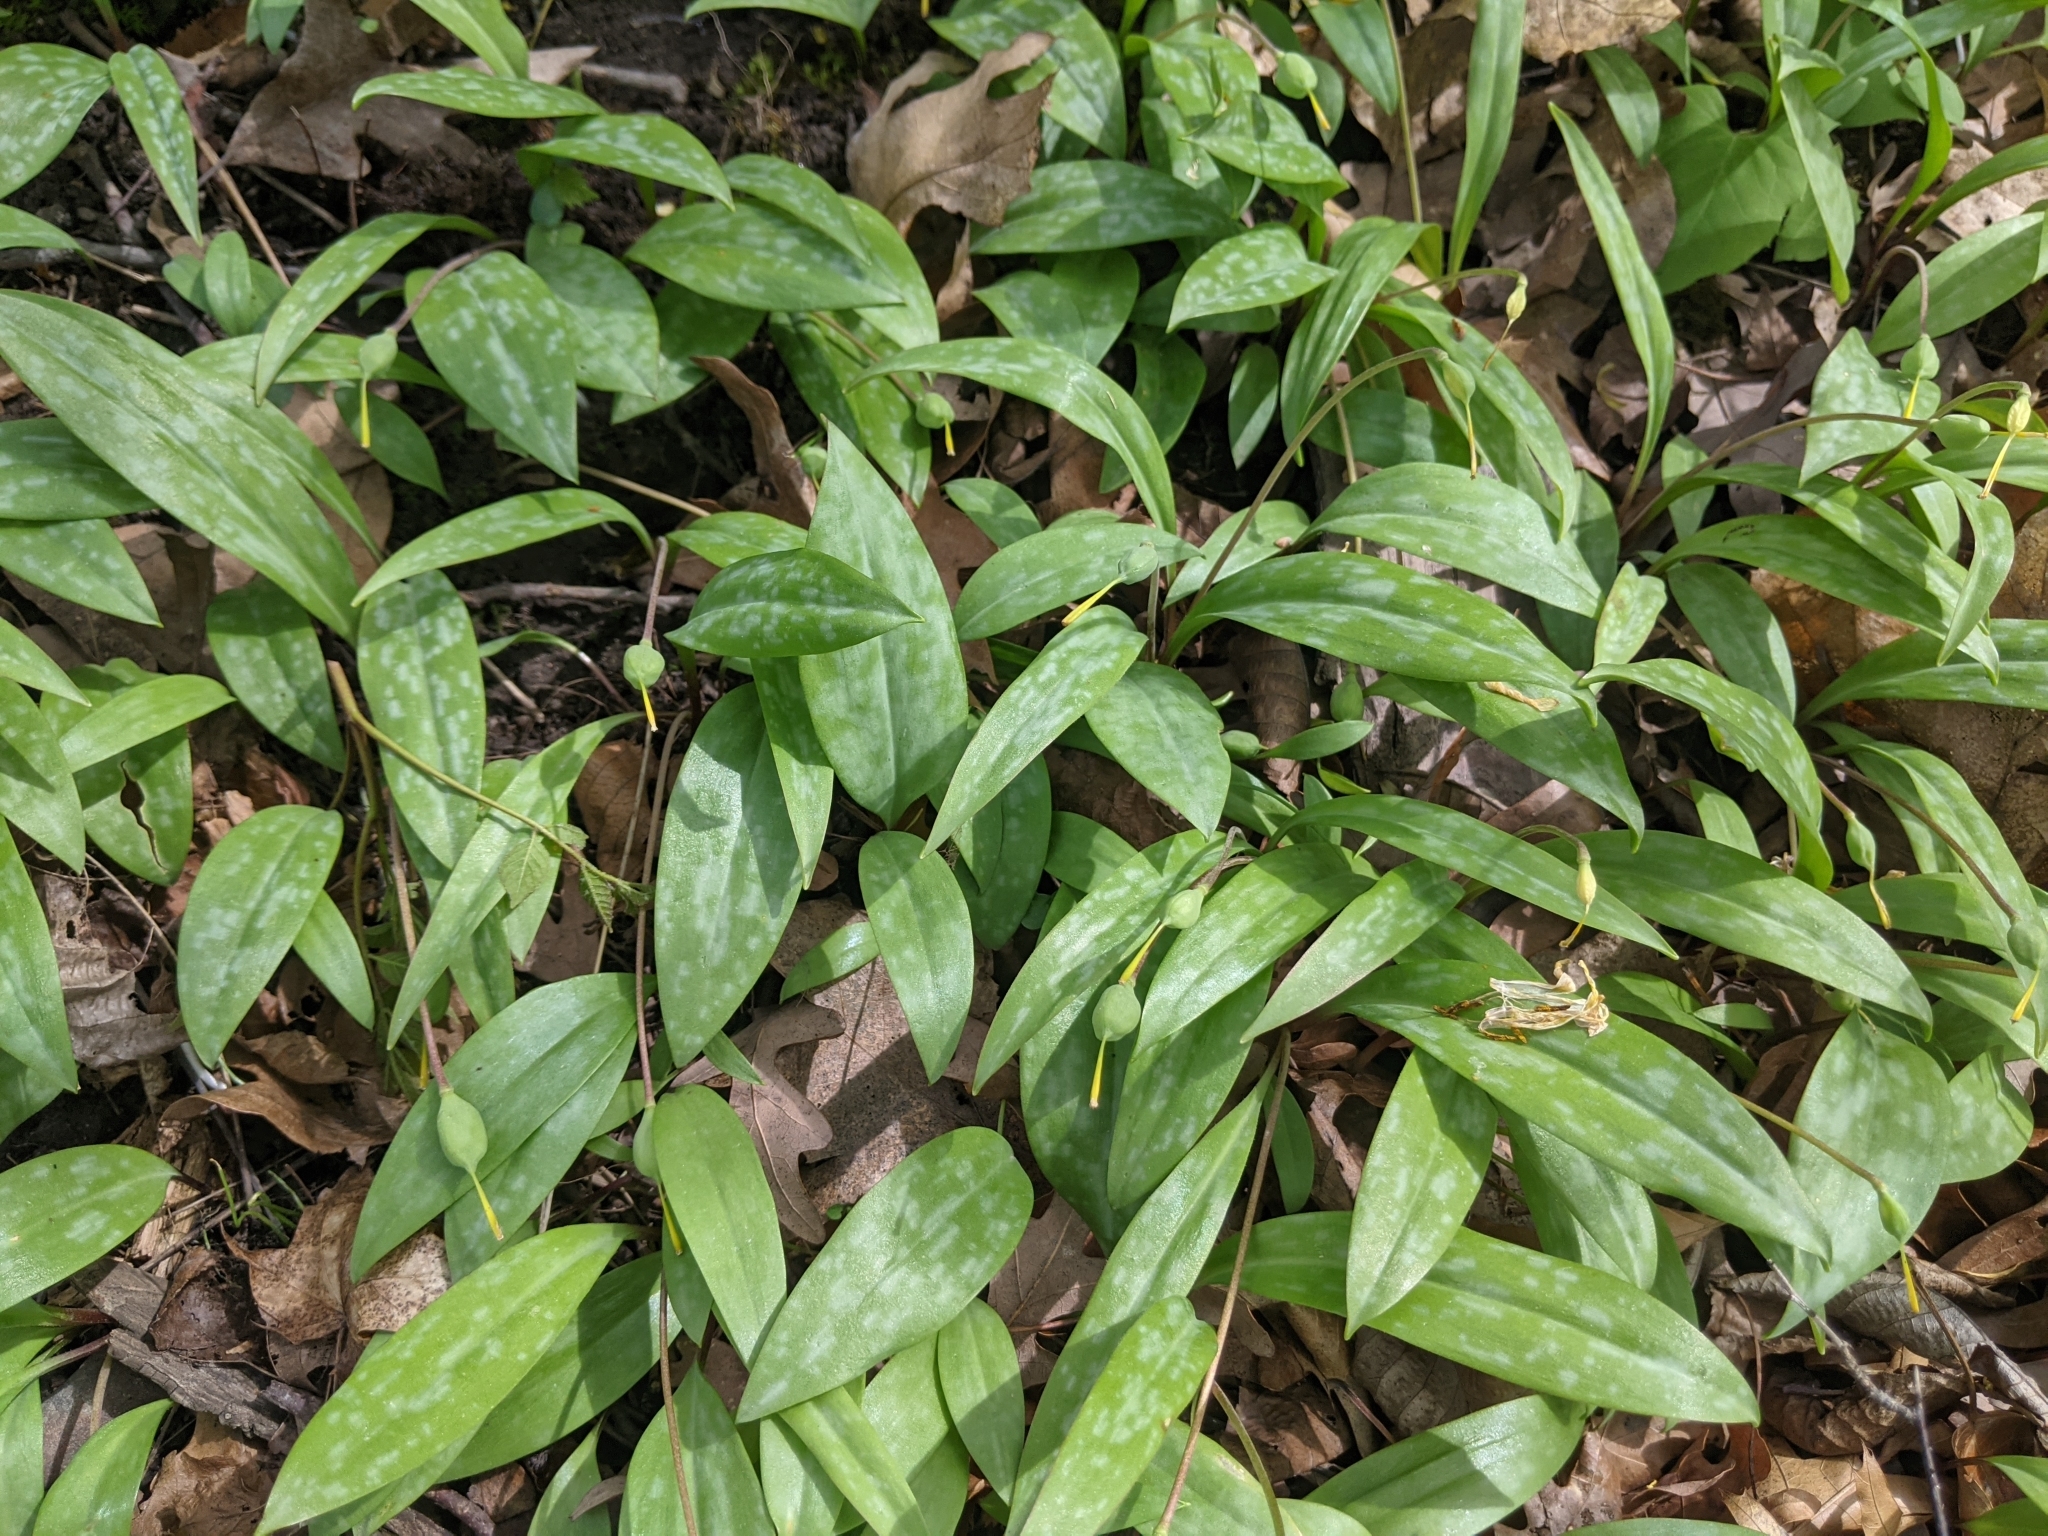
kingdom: Plantae
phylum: Tracheophyta
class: Liliopsida
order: Liliales
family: Liliaceae
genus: Erythronium
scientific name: Erythronium americanum
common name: Yellow adder's-tongue
